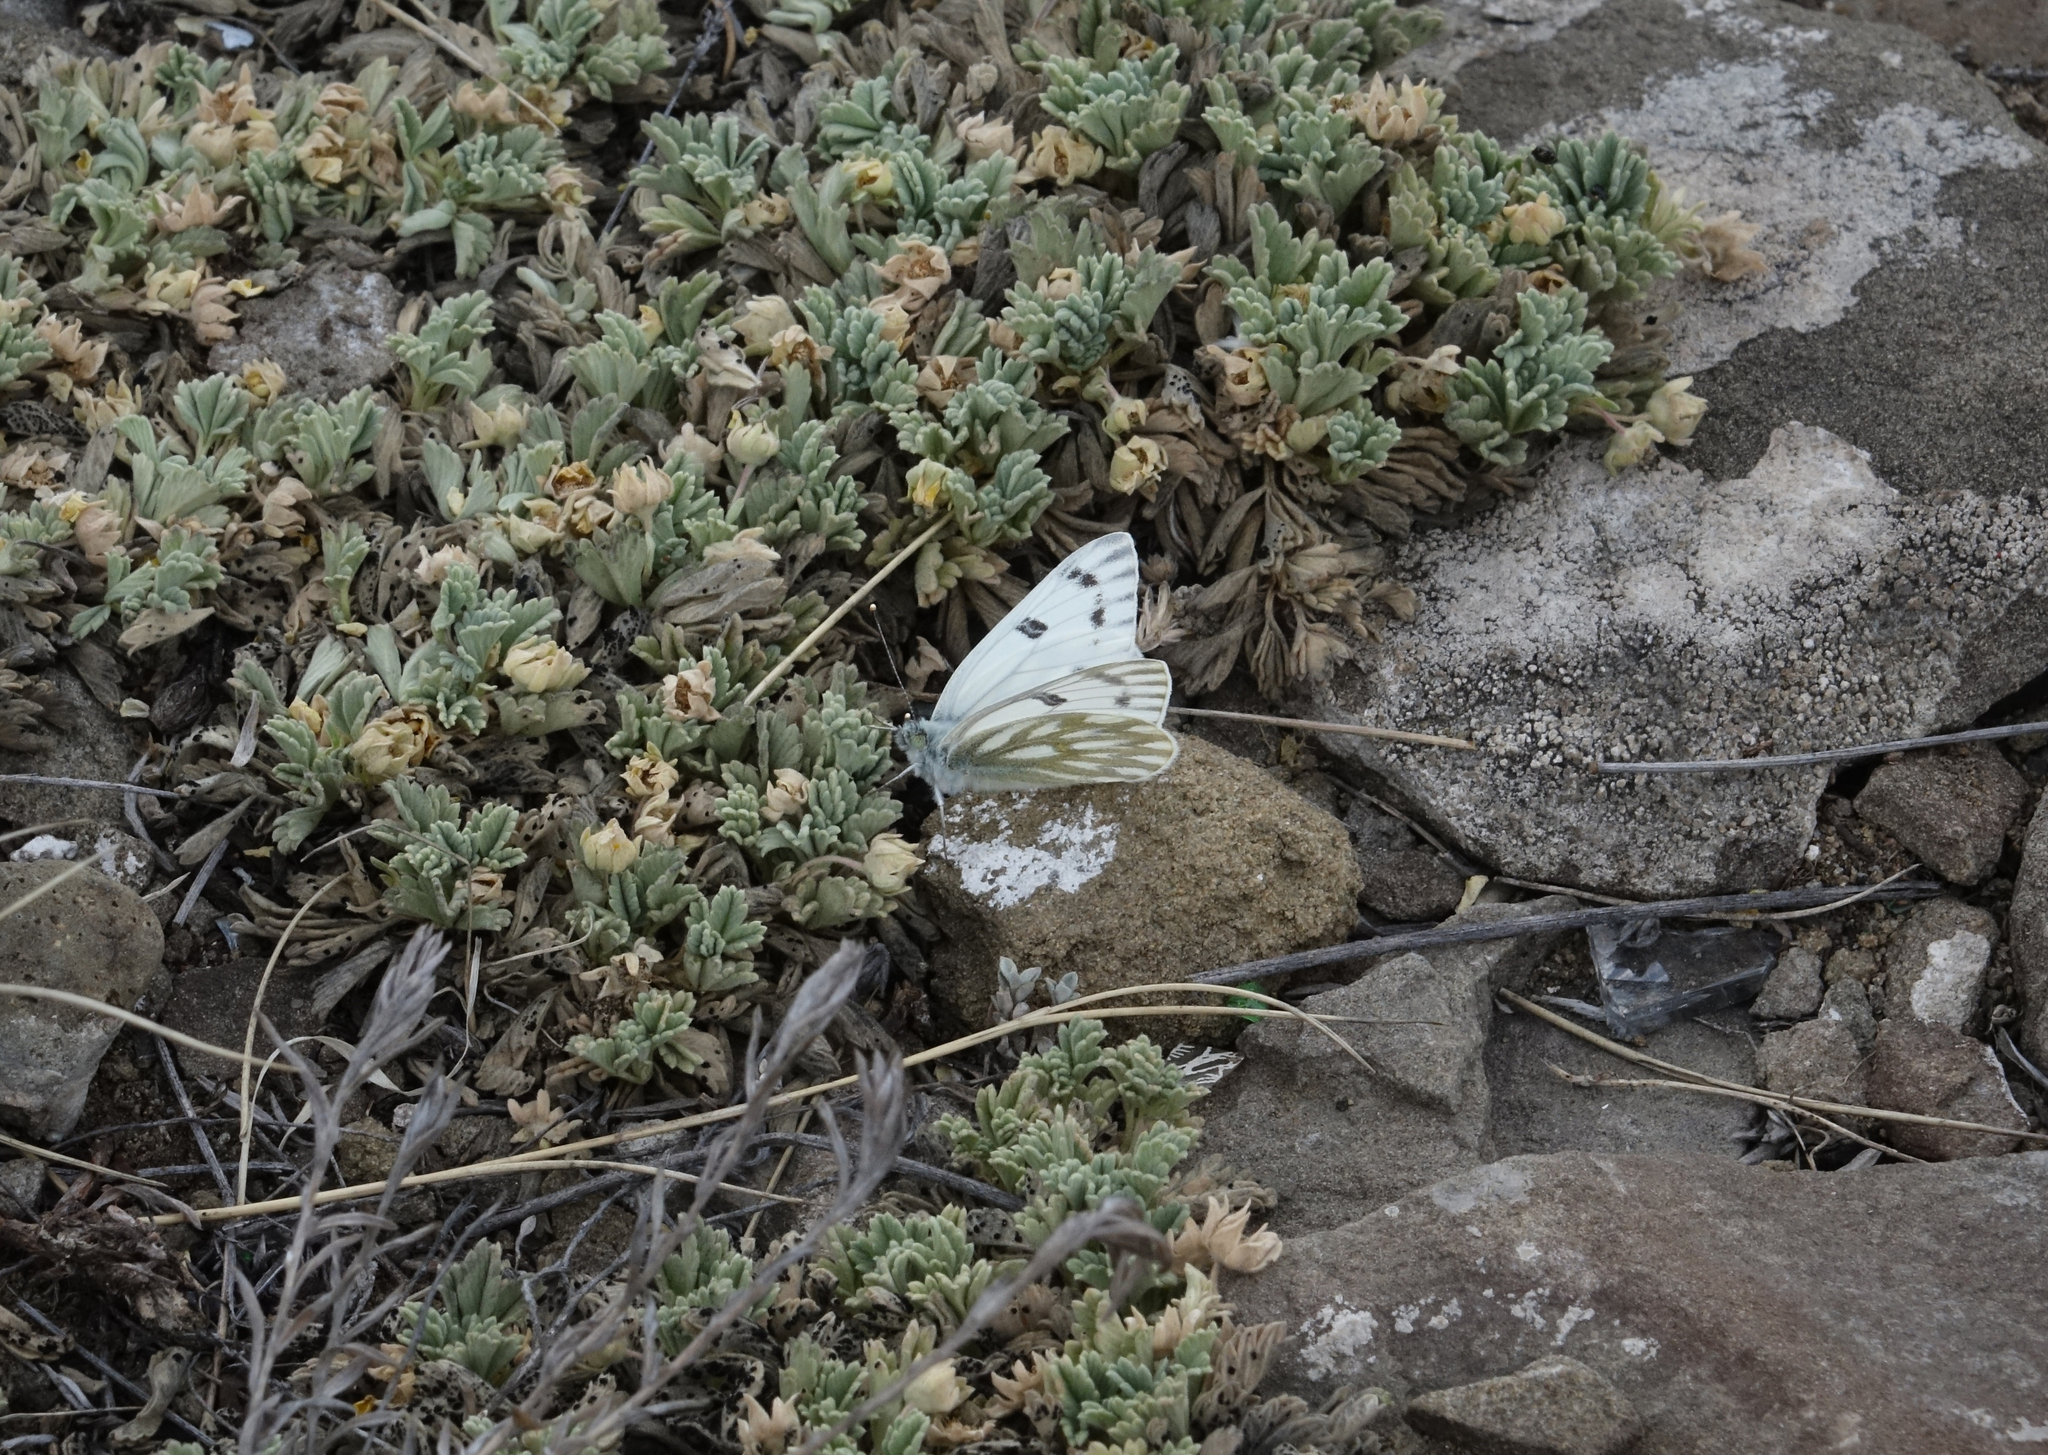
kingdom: Plantae
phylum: Tracheophyta
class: Magnoliopsida
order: Rosales
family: Rosaceae
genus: Potentilla
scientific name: Potentilla acaulis
